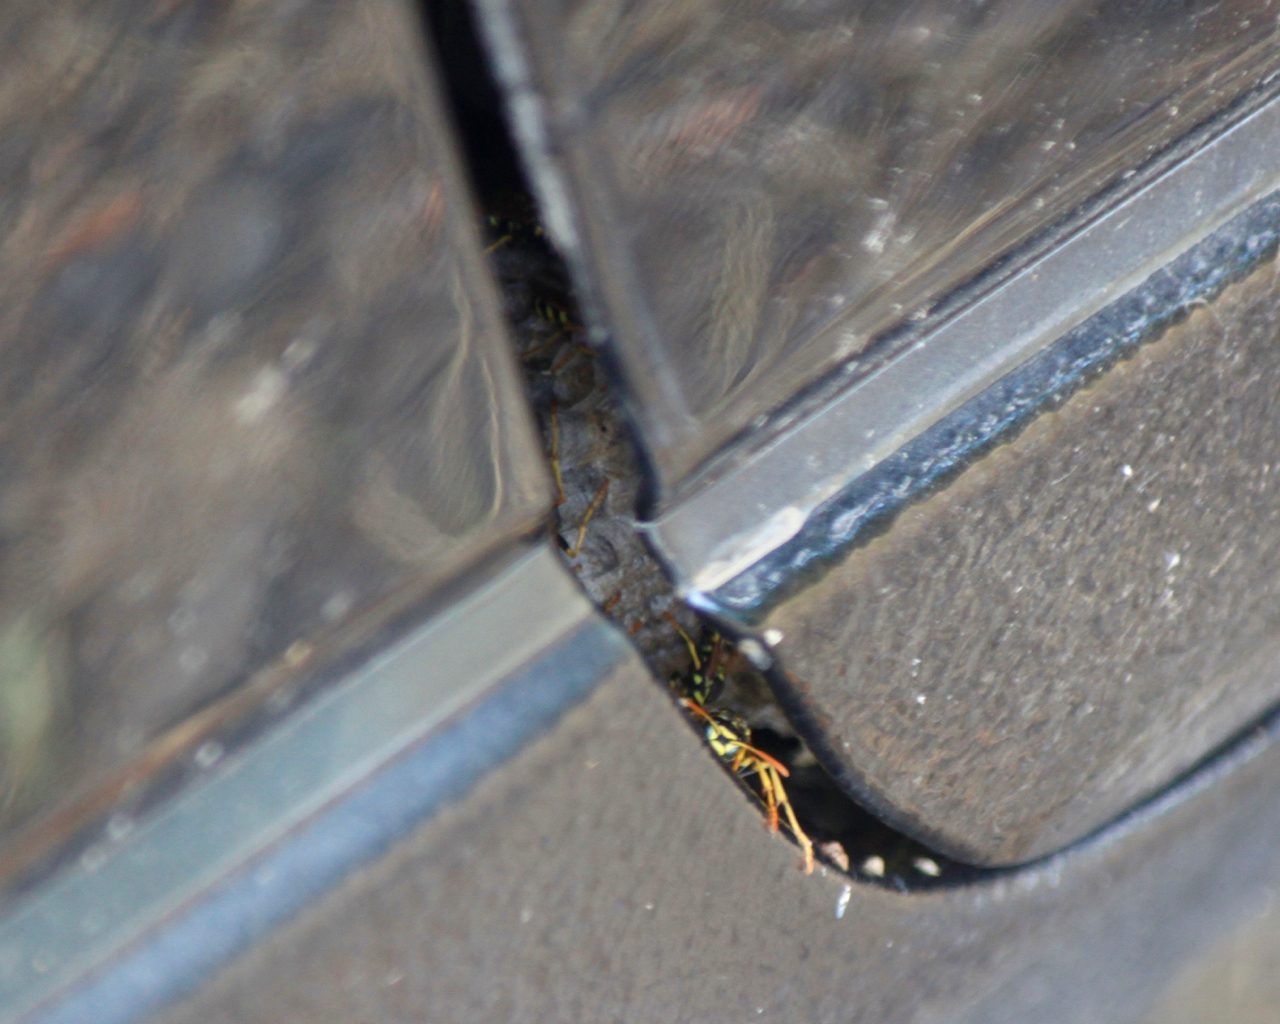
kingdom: Animalia
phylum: Arthropoda
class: Insecta
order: Hymenoptera
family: Eumenidae
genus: Polistes
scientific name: Polistes dominula
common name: Paper wasp
